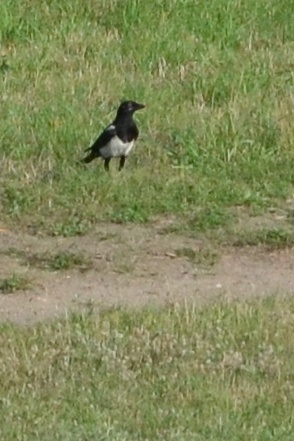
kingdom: Animalia
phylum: Chordata
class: Aves
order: Passeriformes
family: Corvidae
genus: Pica
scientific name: Pica pica
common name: Eurasian magpie
